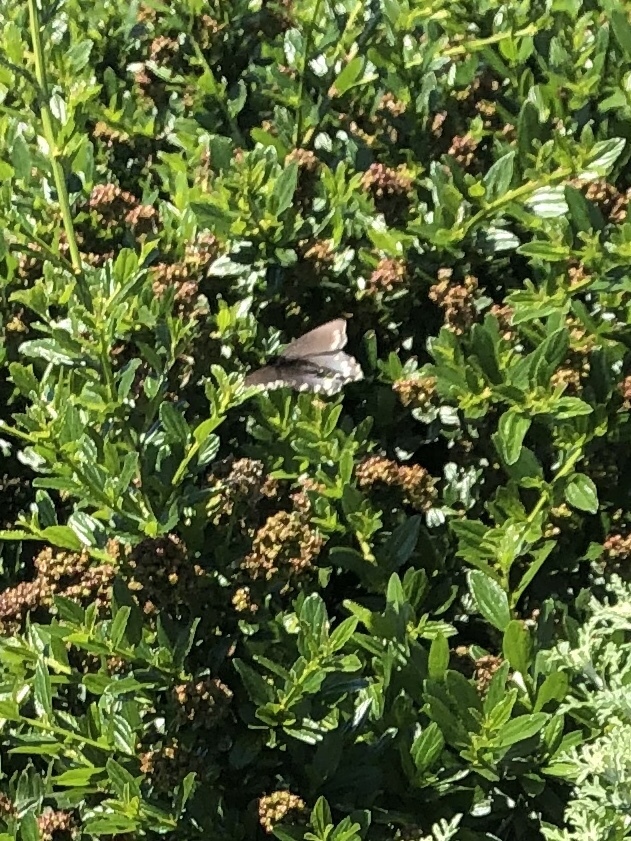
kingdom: Animalia
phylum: Arthropoda
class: Insecta
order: Lepidoptera
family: Papilionidae
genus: Battus
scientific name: Battus philenor
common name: Pipevine swallowtail
